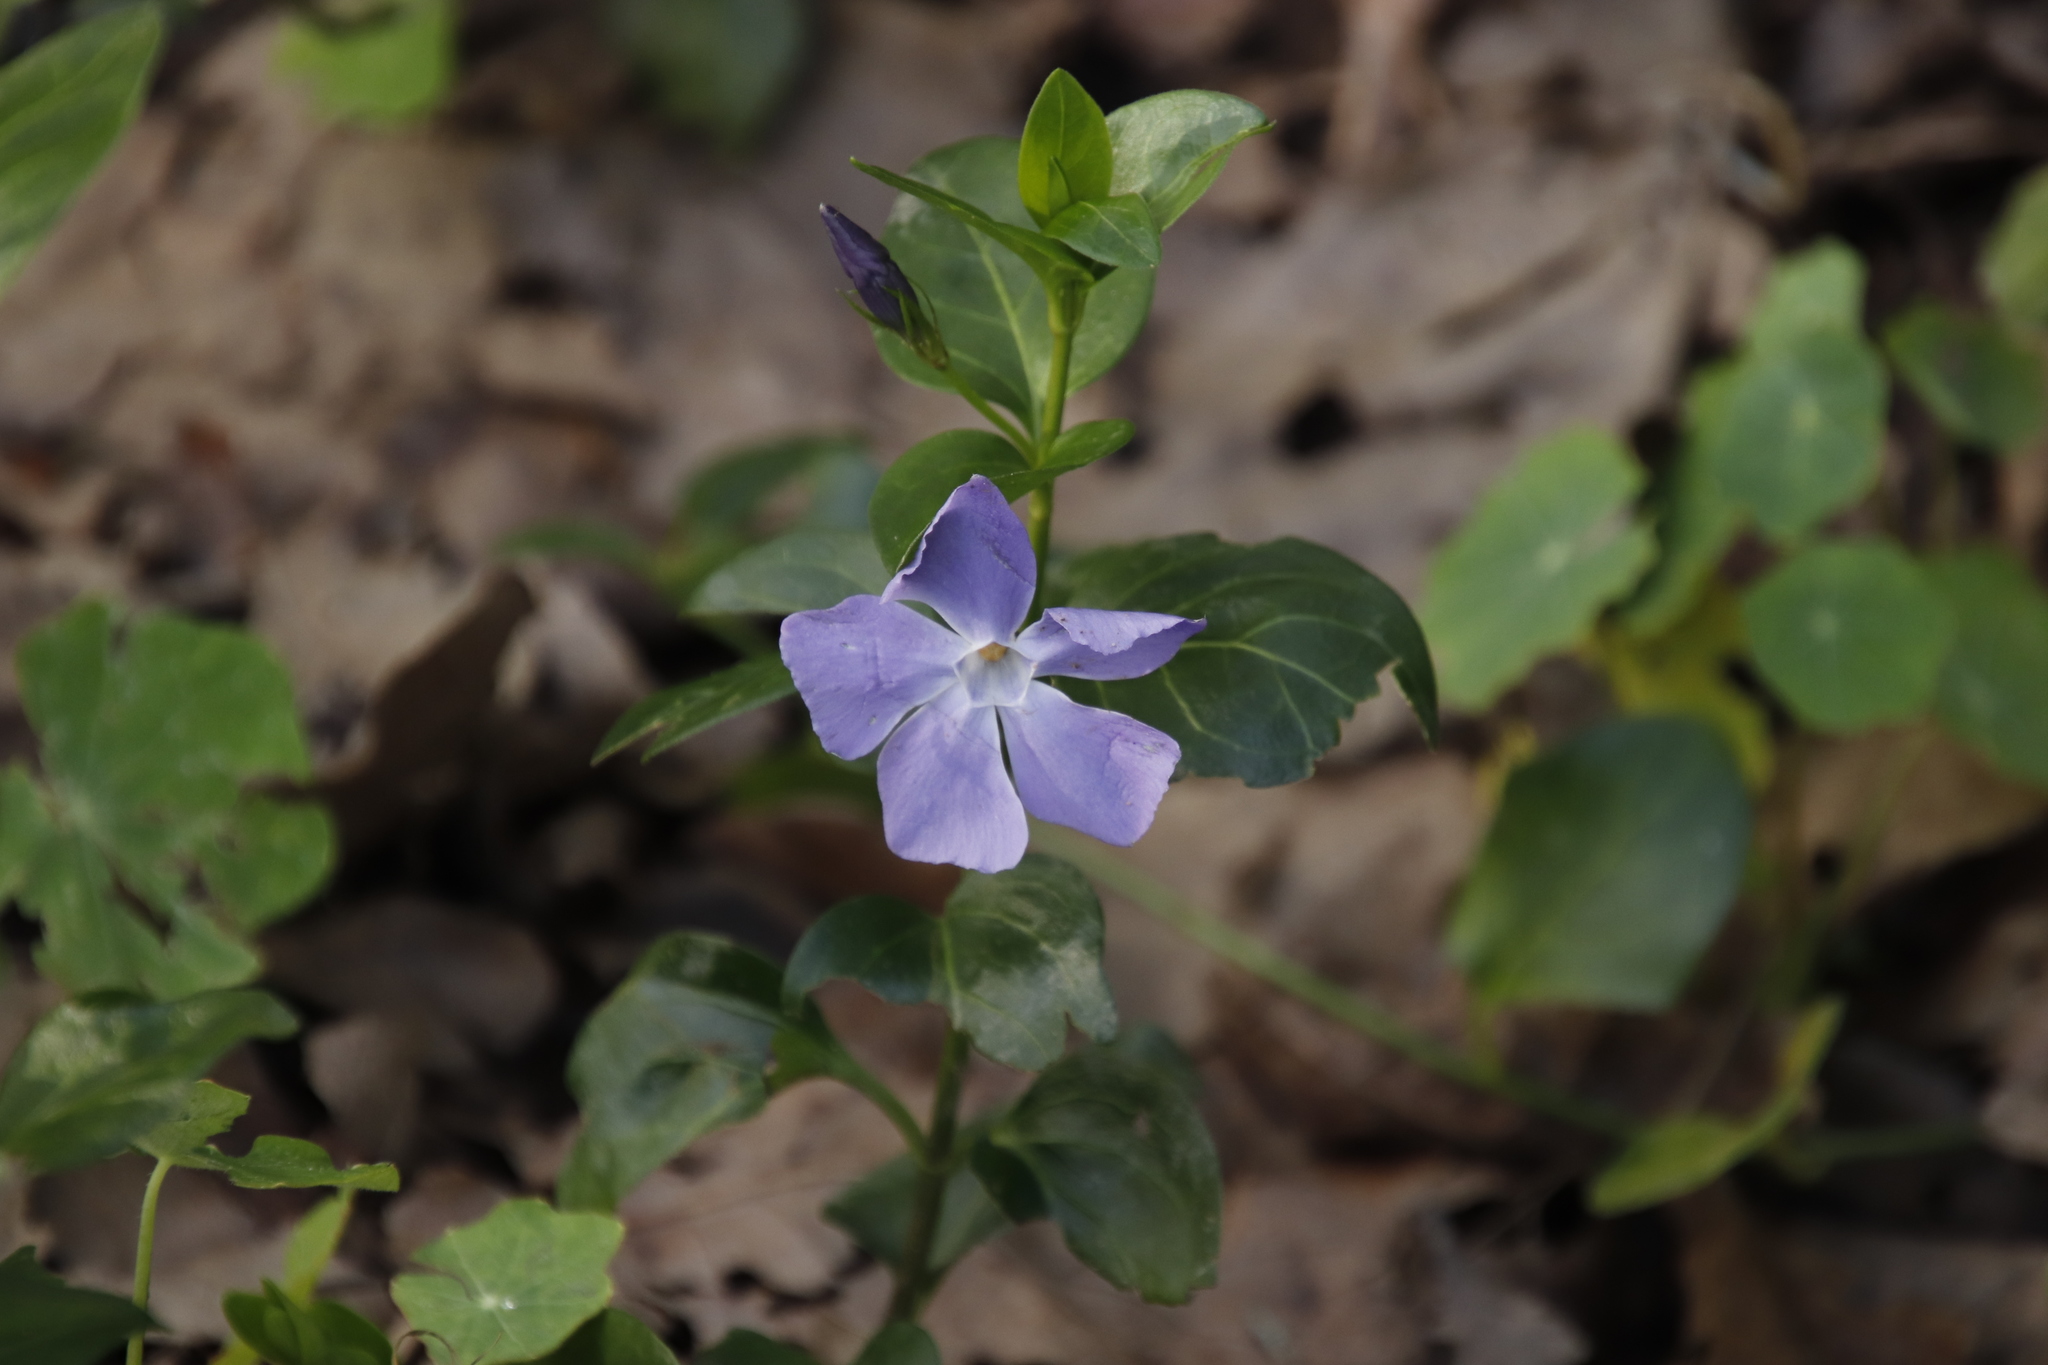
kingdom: Plantae
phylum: Tracheophyta
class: Magnoliopsida
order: Gentianales
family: Apocynaceae
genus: Vinca
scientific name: Vinca major
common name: Greater periwinkle
